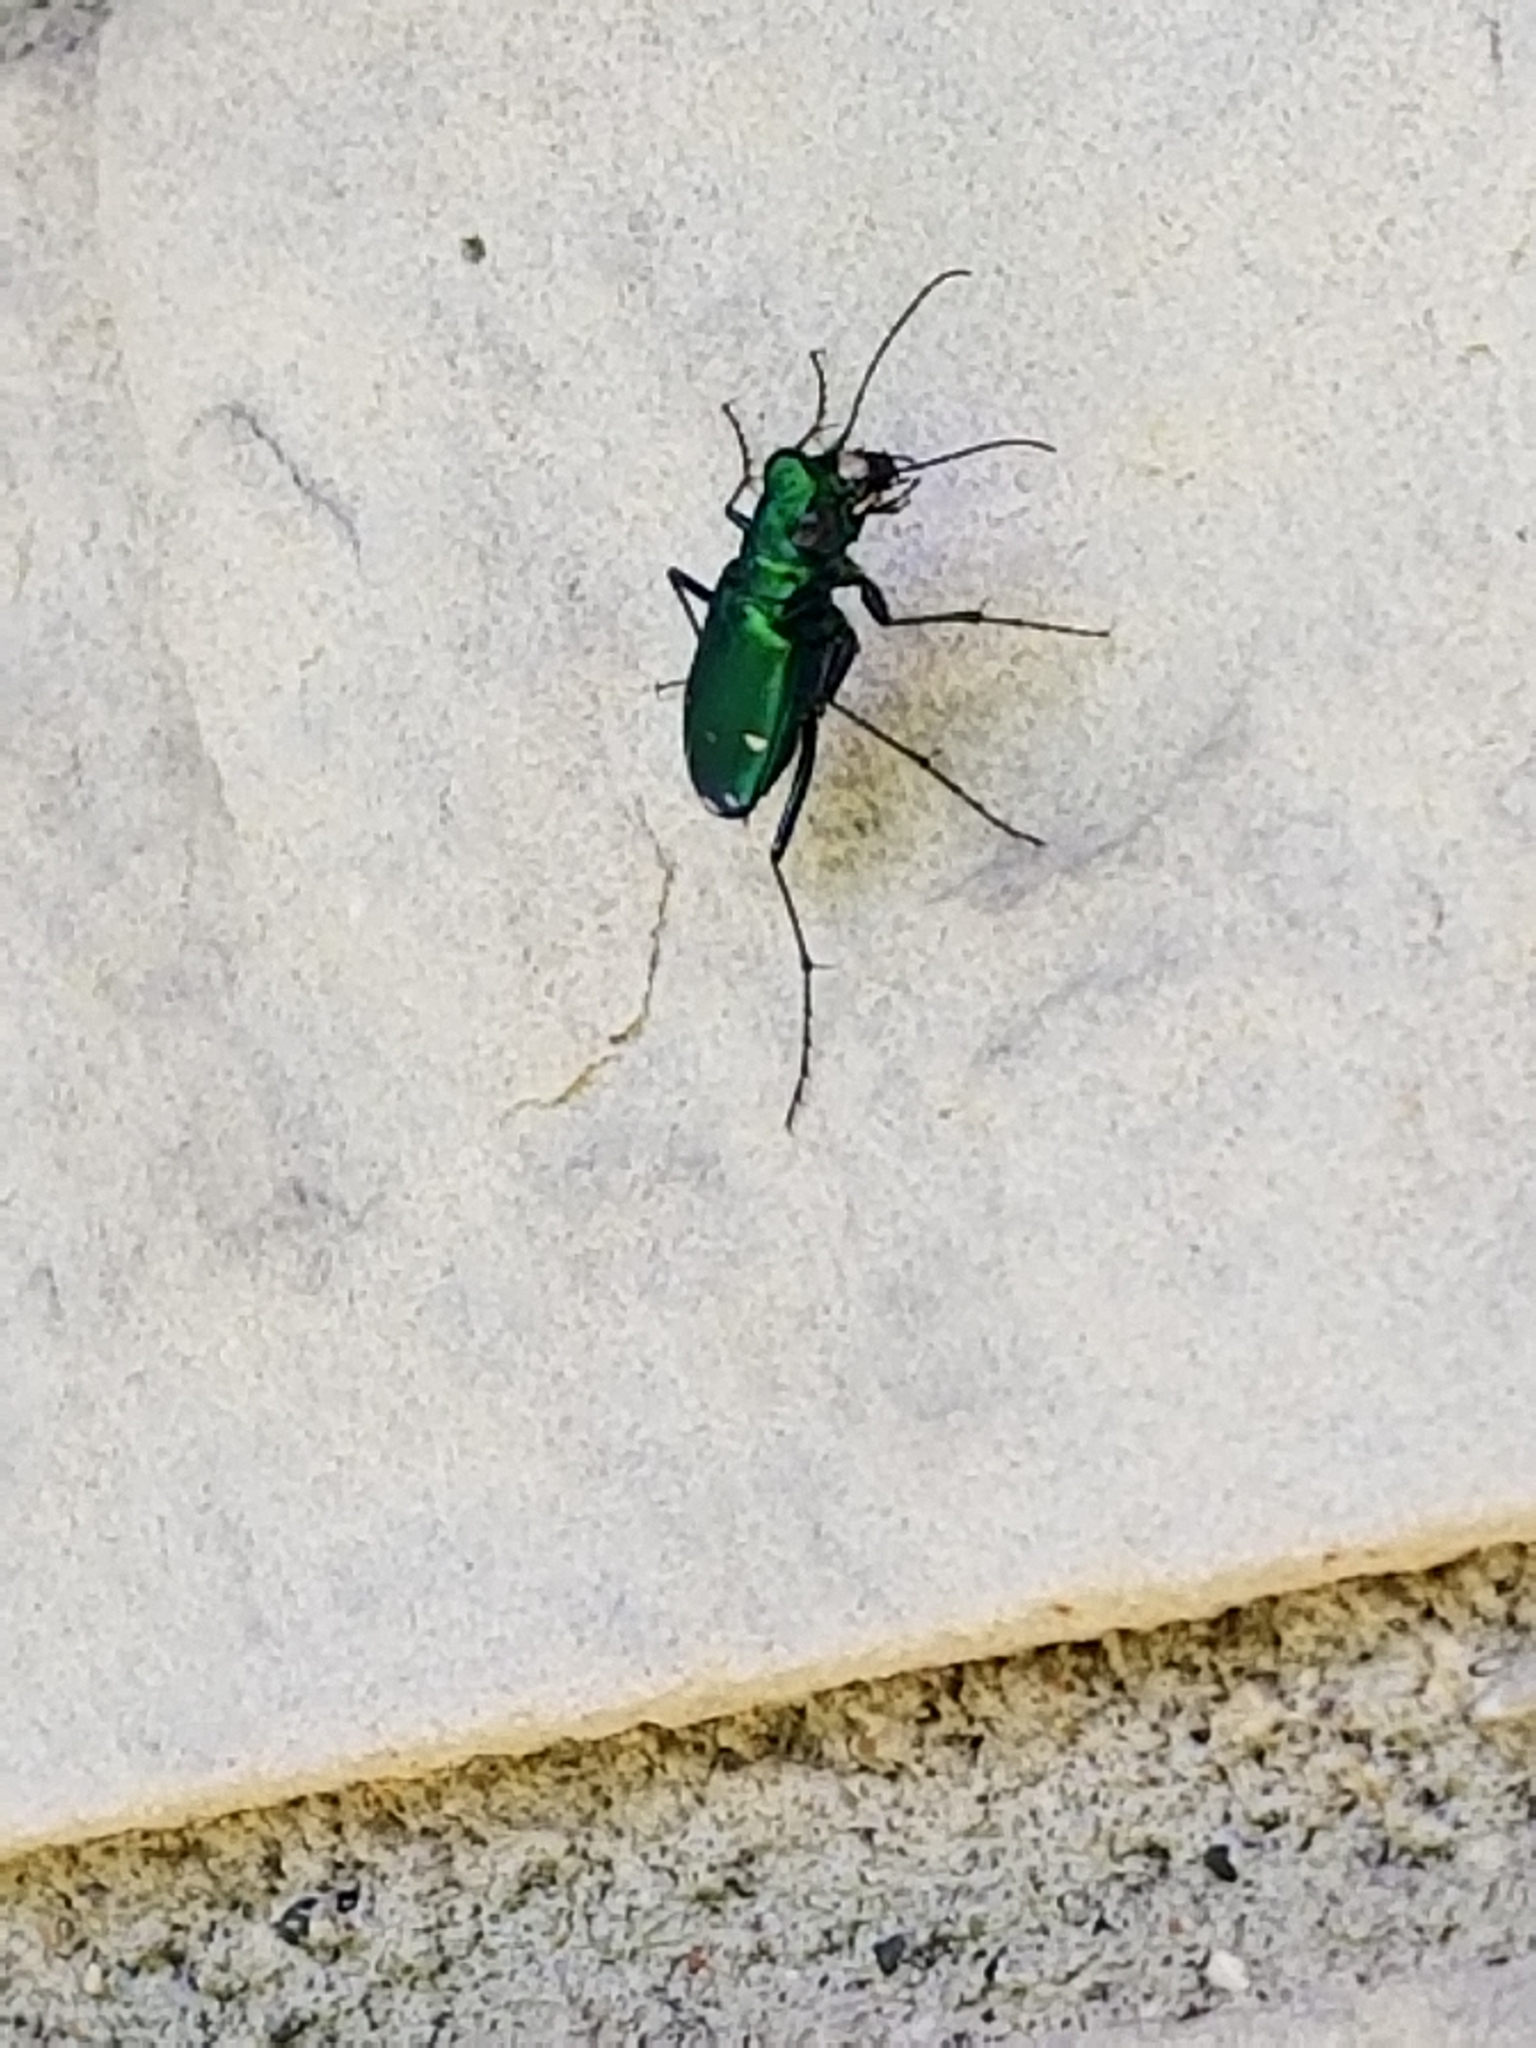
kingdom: Animalia
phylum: Arthropoda
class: Insecta
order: Coleoptera
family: Carabidae
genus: Cicindela
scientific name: Cicindela sexguttata
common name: Six-spotted tiger beetle
